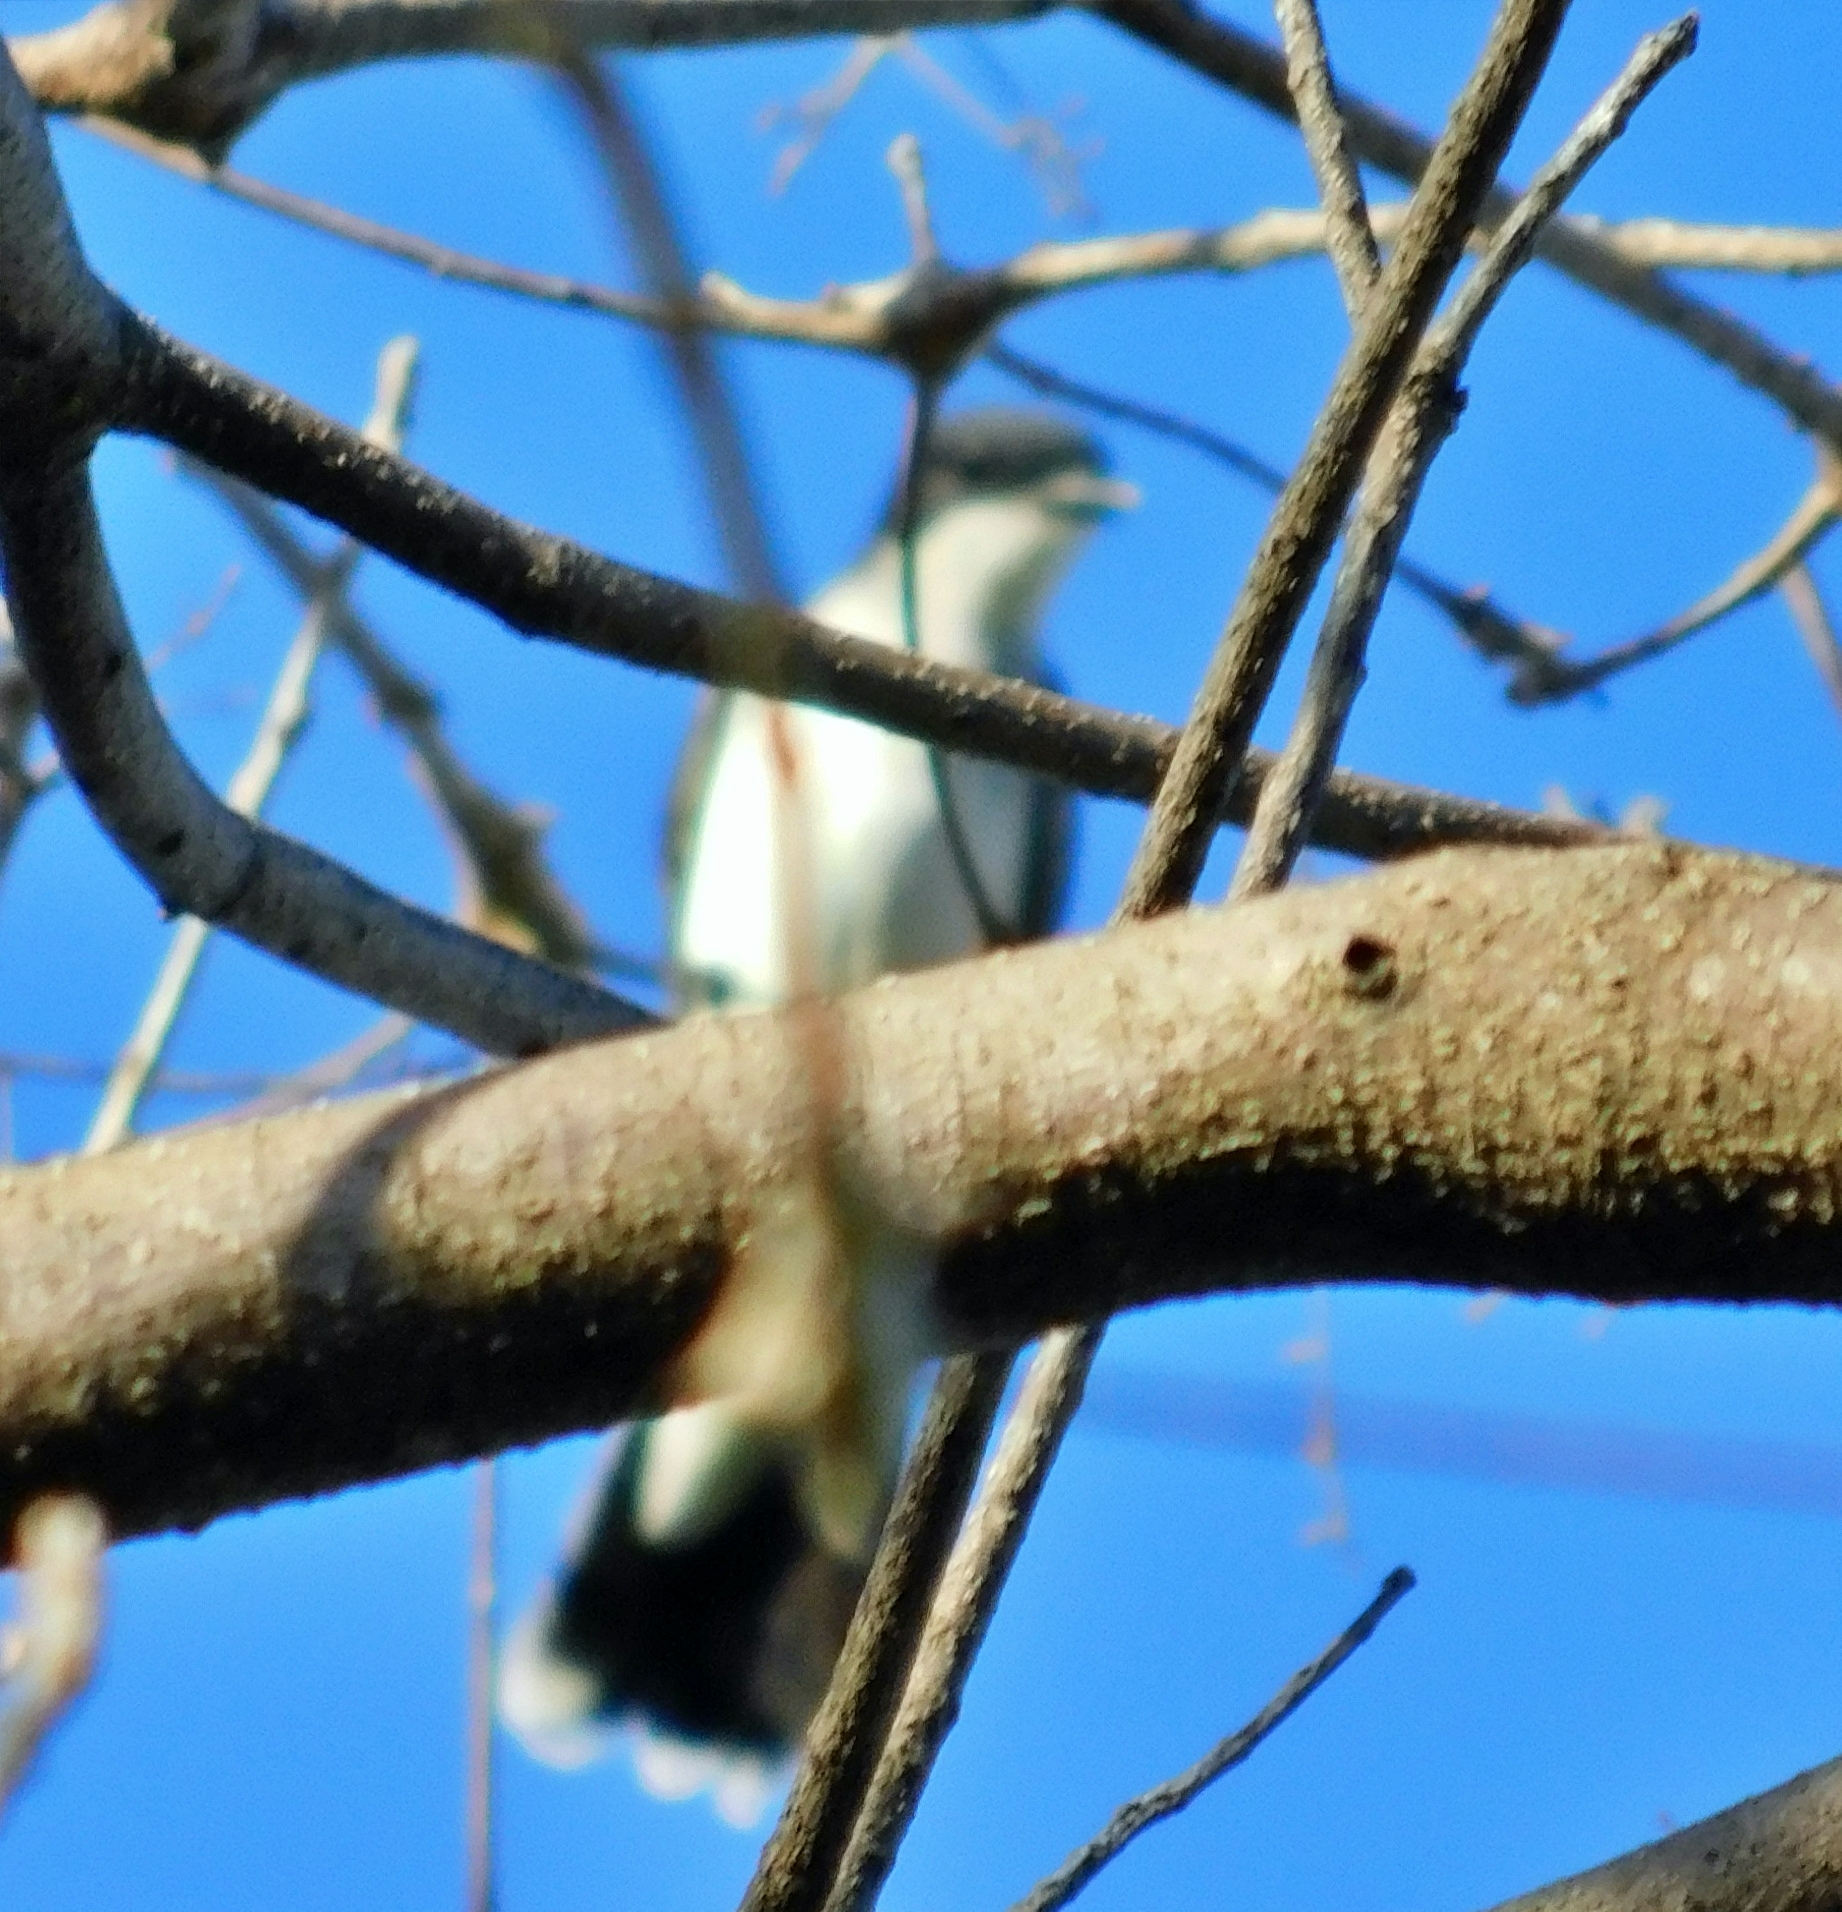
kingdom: Animalia
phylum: Chordata
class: Aves
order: Passeriformes
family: Tyrannidae
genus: Tyrannus
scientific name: Tyrannus tyrannus
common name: Eastern kingbird
